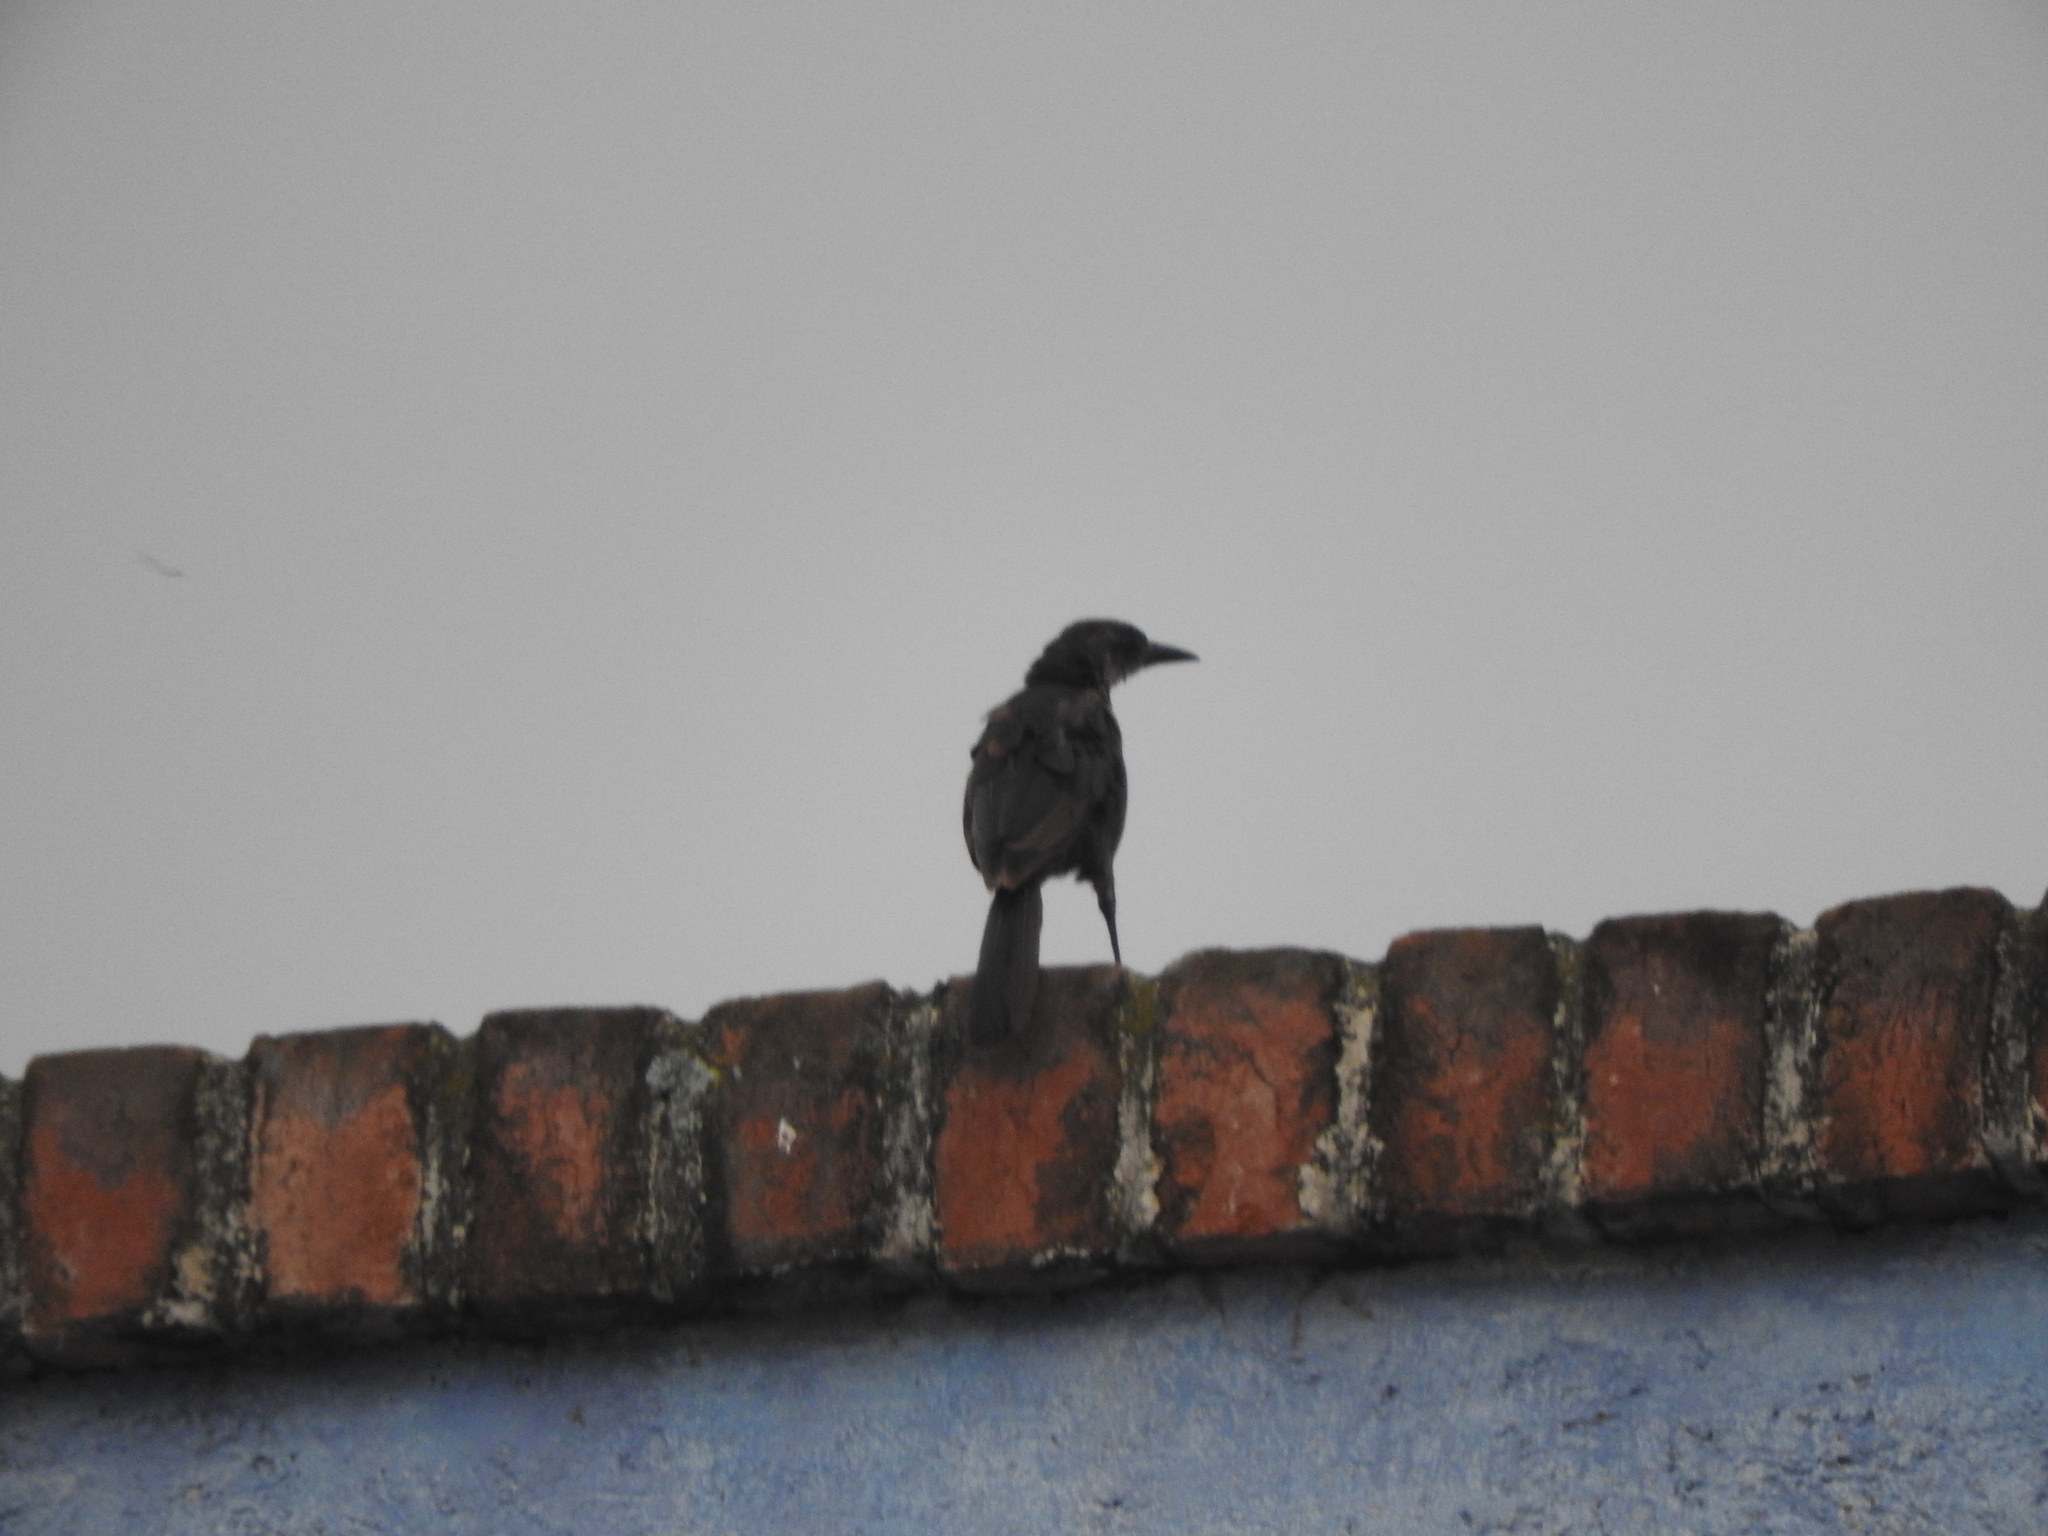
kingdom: Animalia
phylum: Chordata
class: Aves
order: Passeriformes
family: Icteridae
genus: Quiscalus
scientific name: Quiscalus mexicanus
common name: Great-tailed grackle
